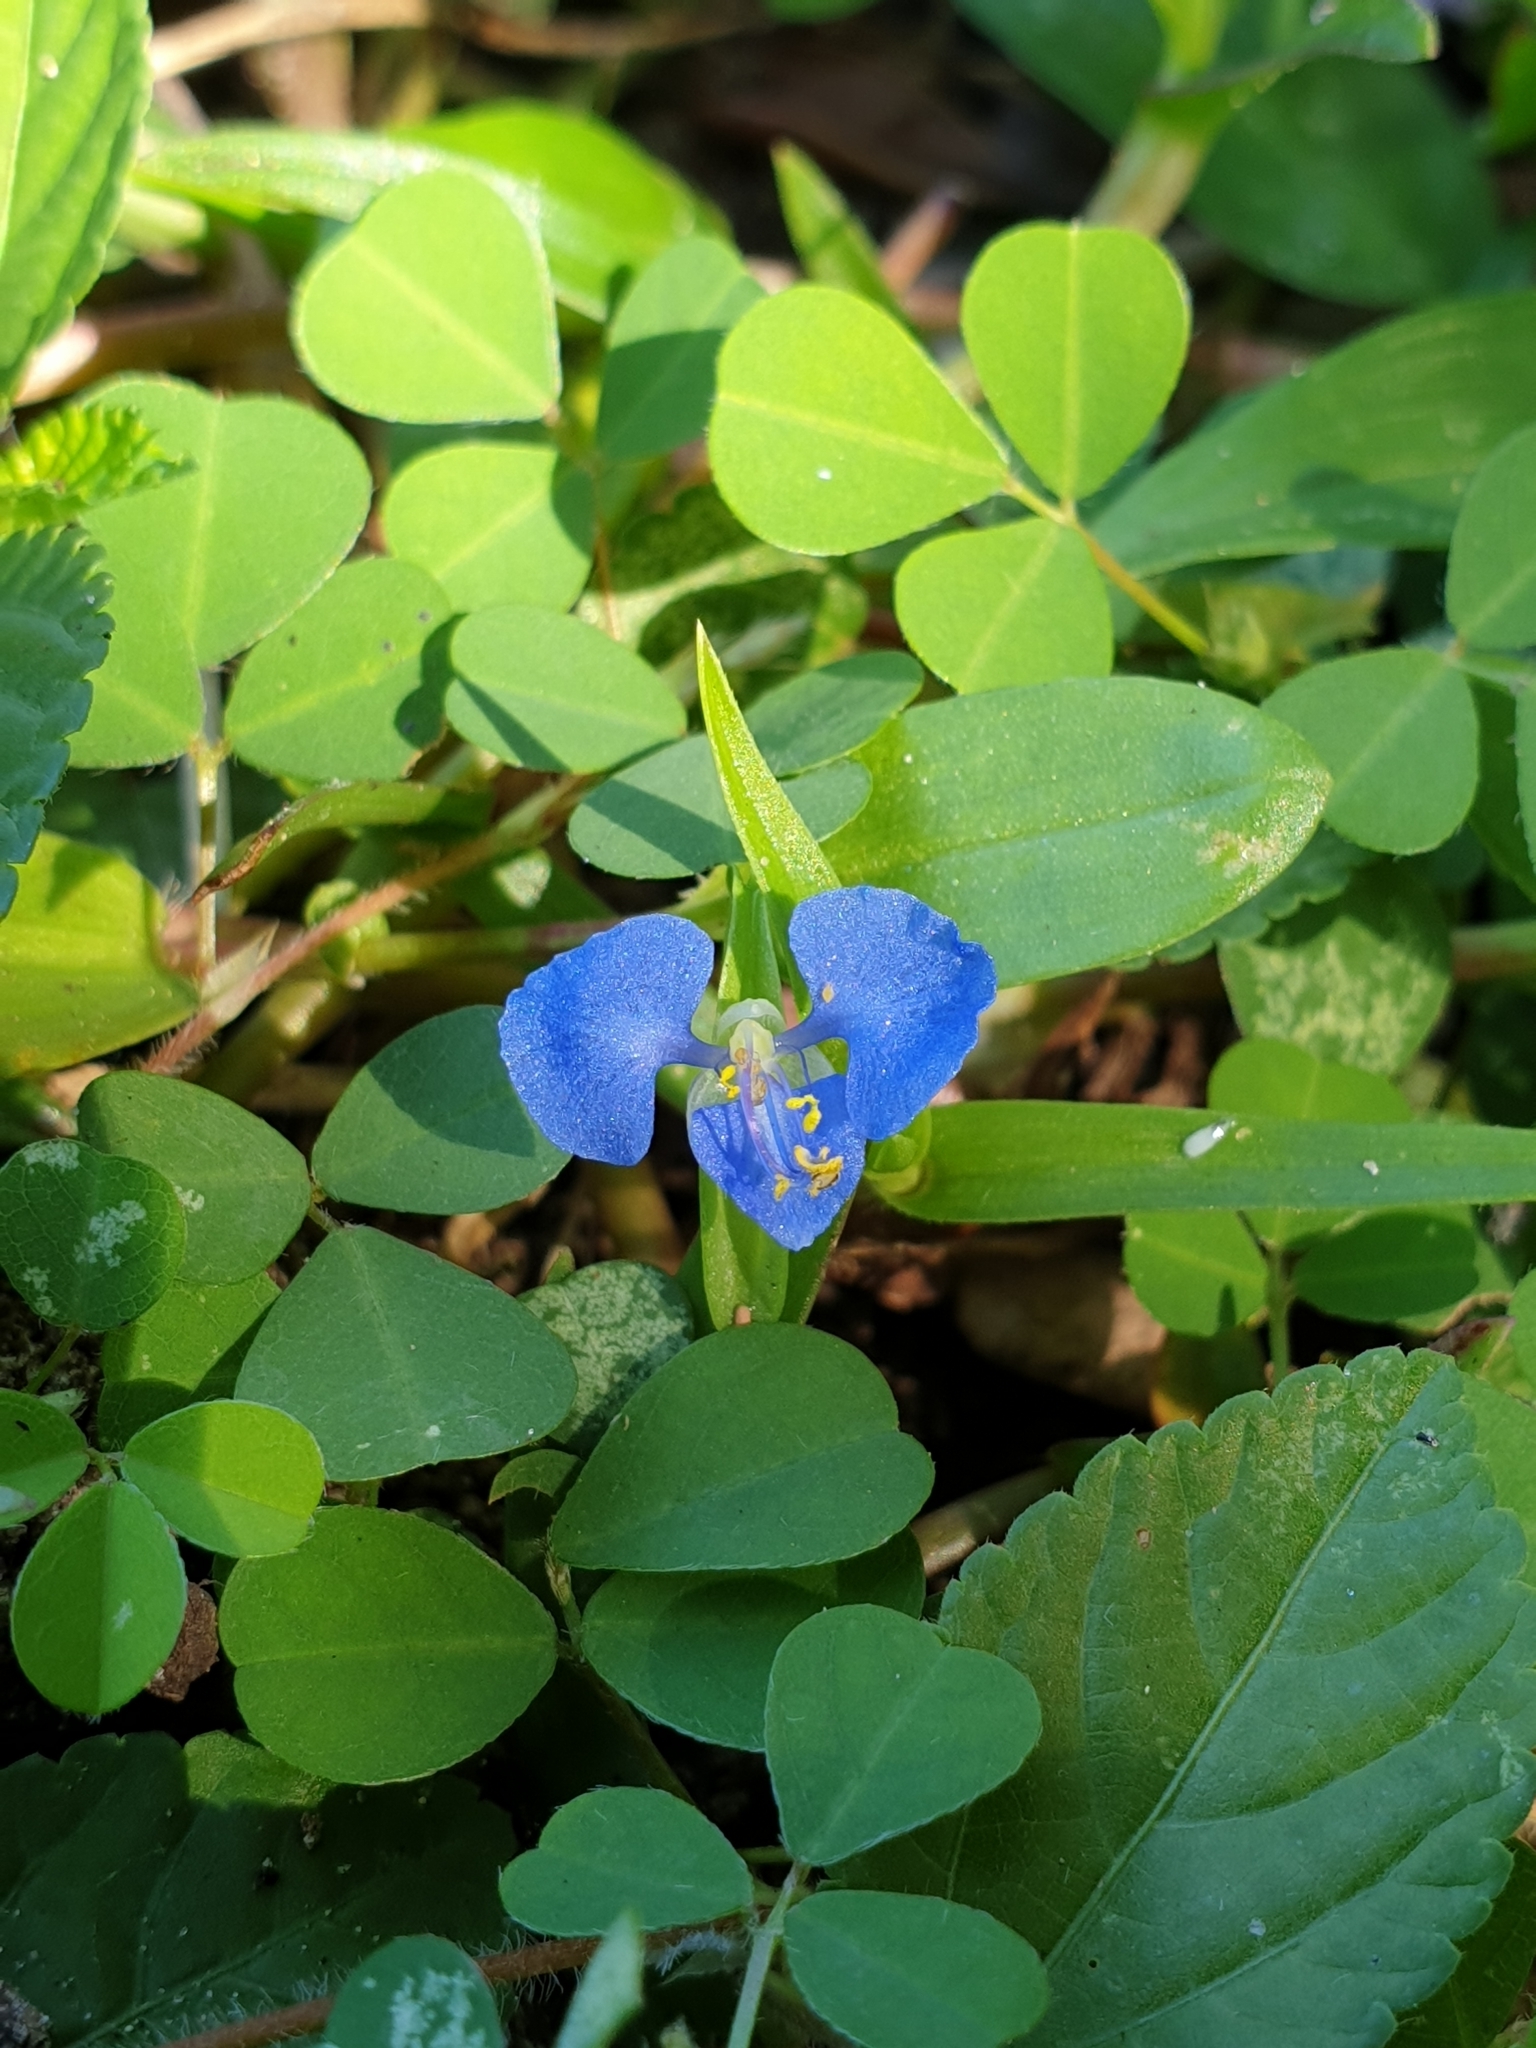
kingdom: Plantae
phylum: Tracheophyta
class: Liliopsida
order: Commelinales
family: Commelinaceae
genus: Commelina
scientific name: Commelina diffusa
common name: Climbing dayflower
